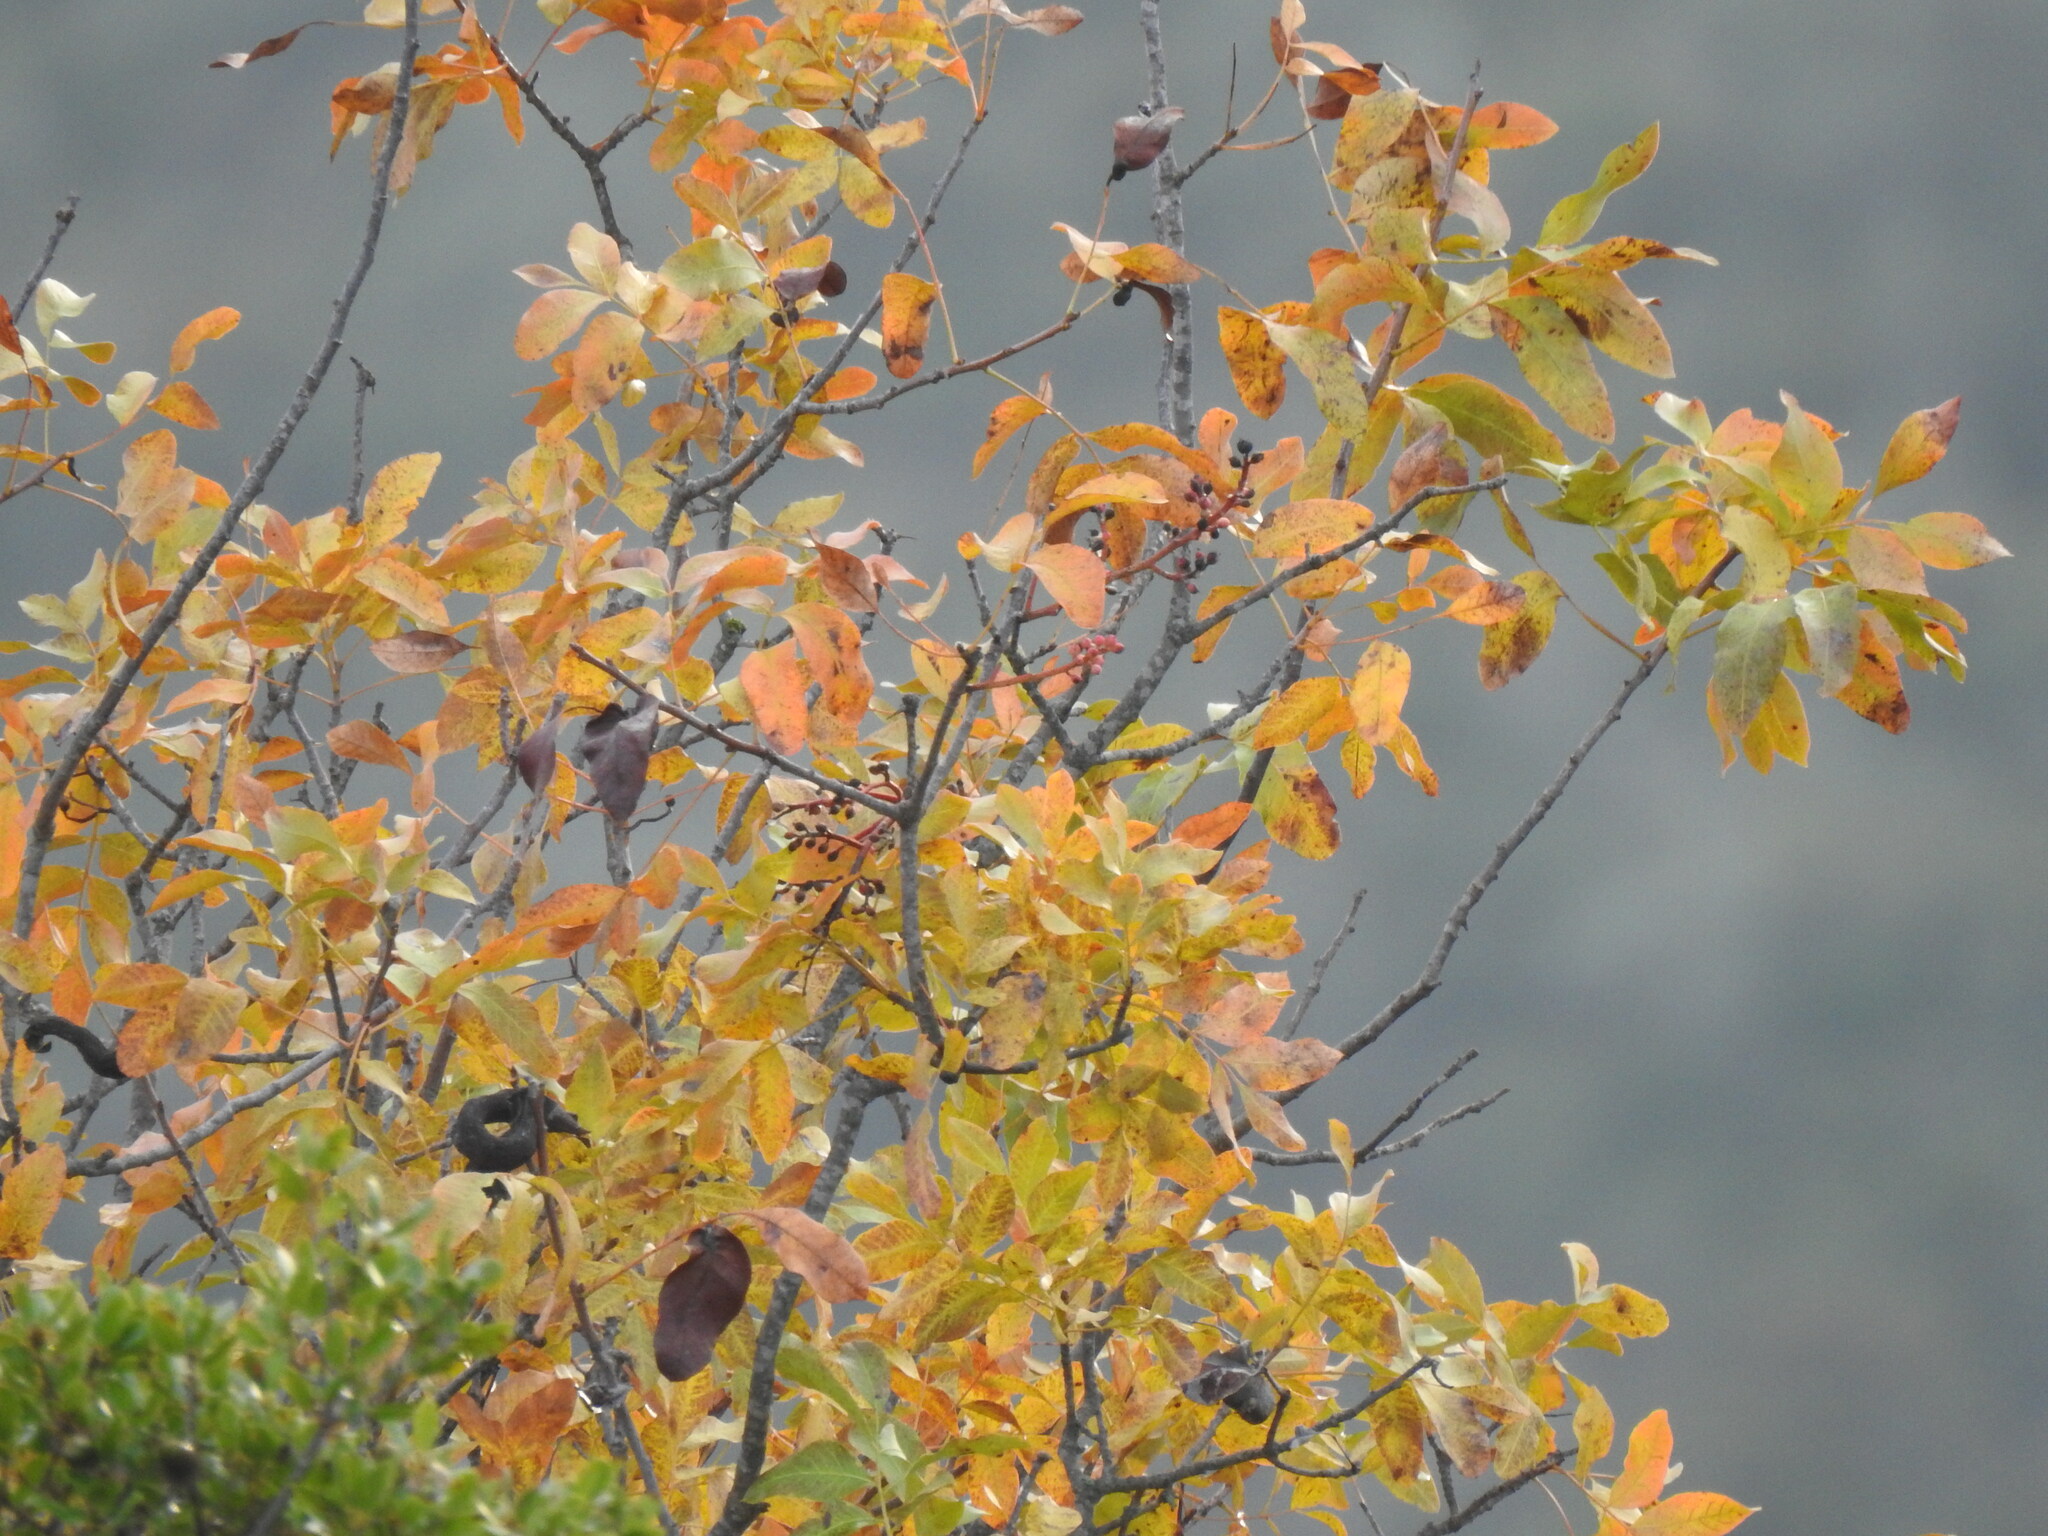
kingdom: Plantae
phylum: Tracheophyta
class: Magnoliopsida
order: Sapindales
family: Anacardiaceae
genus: Pistacia
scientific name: Pistacia terebinthus
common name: Terebinth
